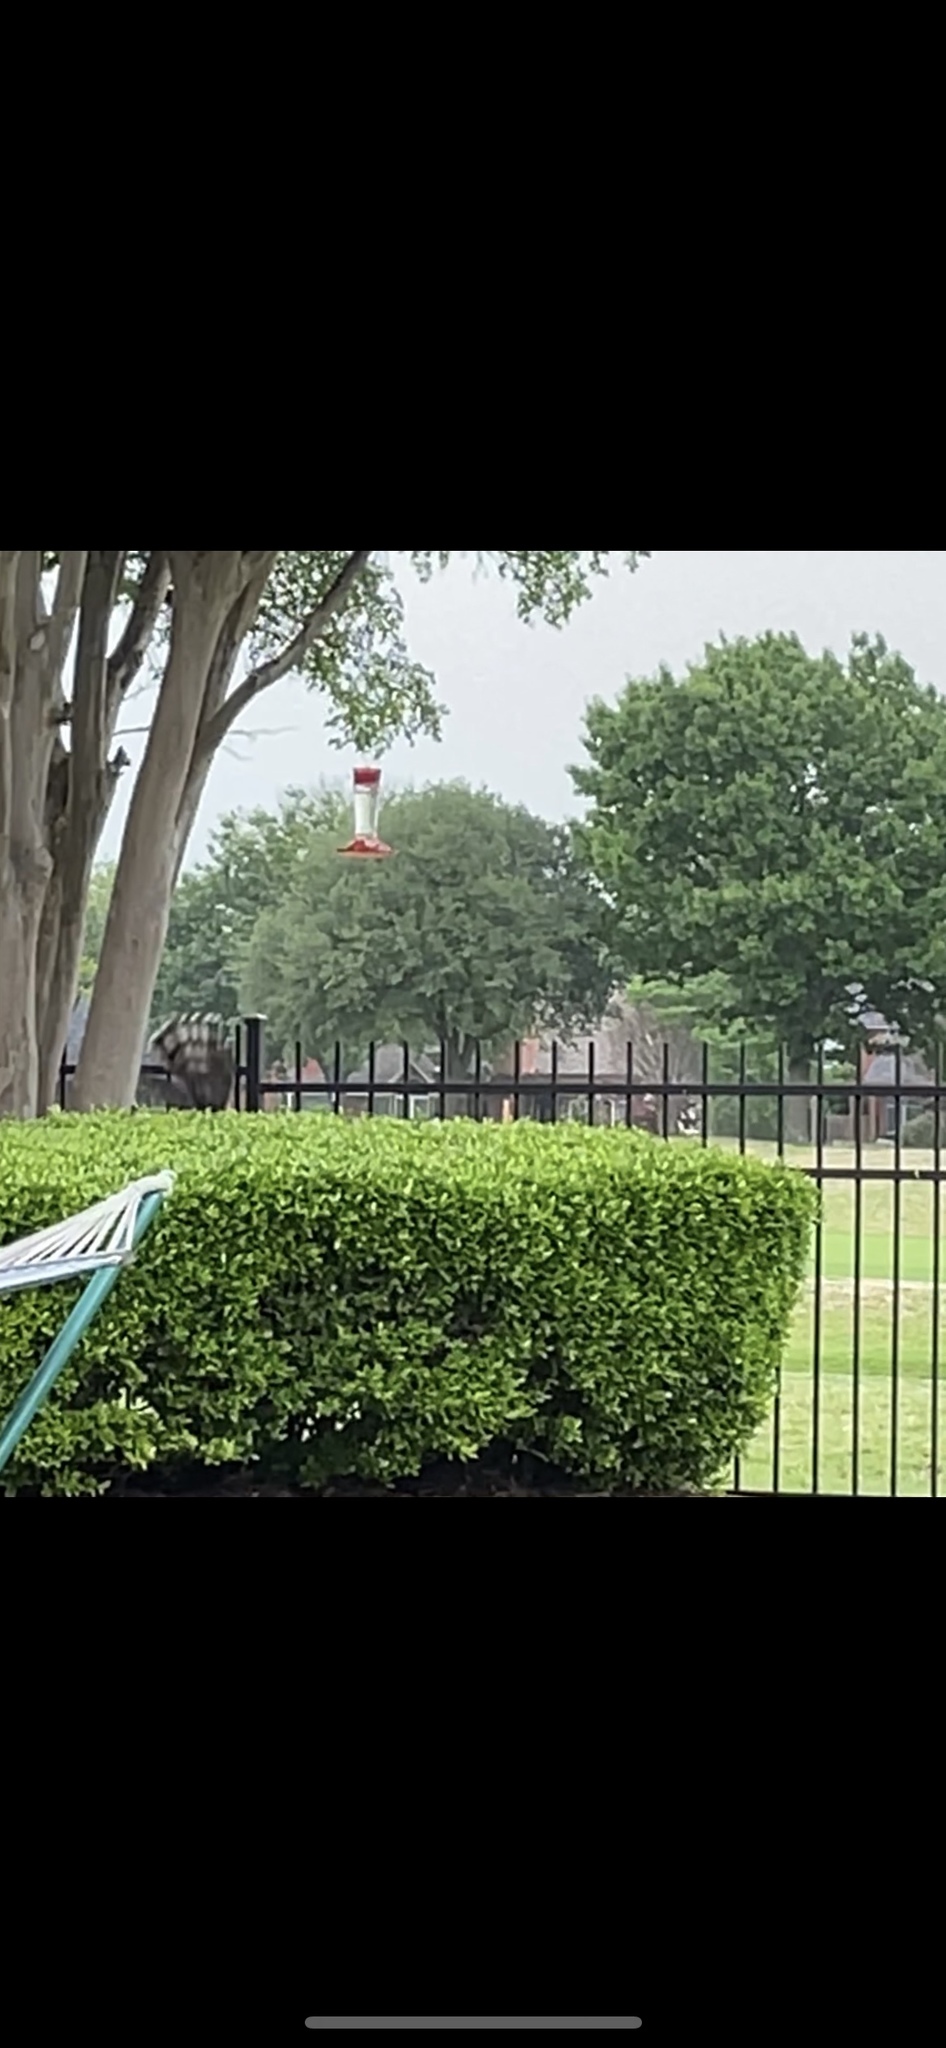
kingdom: Animalia
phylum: Chordata
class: Aves
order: Accipitriformes
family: Accipitridae
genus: Accipiter
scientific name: Accipiter cooperii
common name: Cooper's hawk
